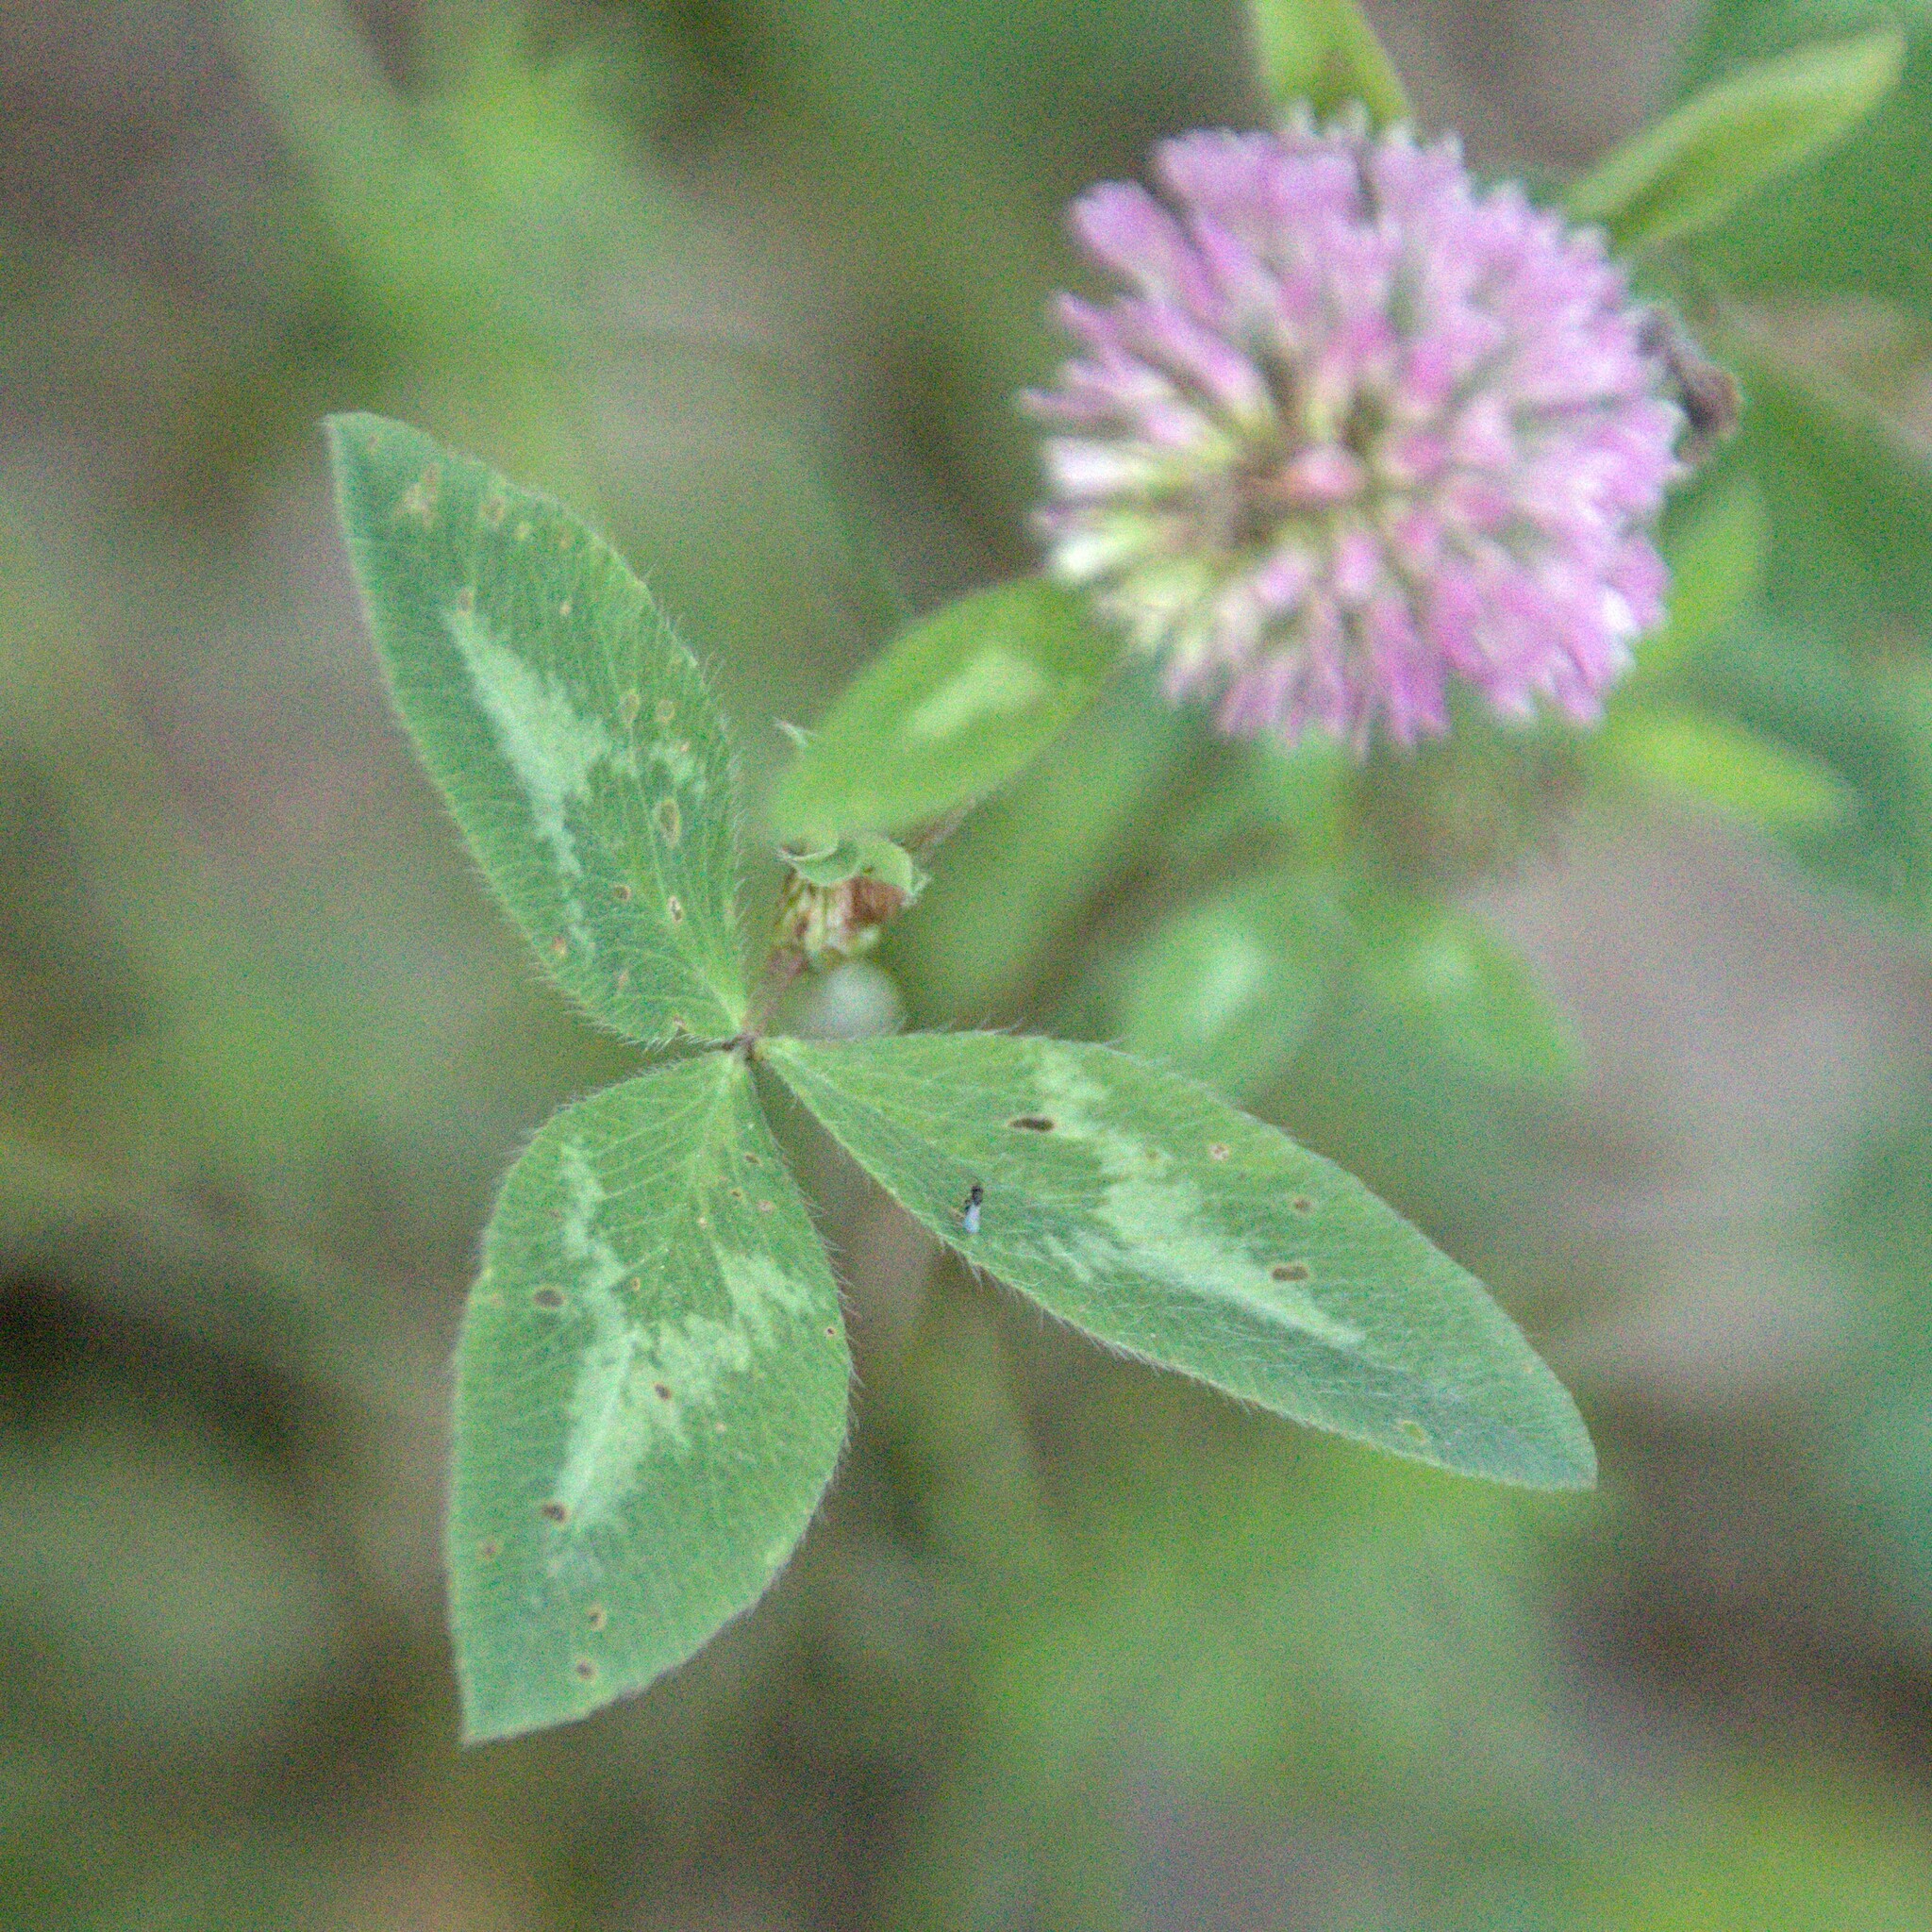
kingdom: Plantae
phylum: Tracheophyta
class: Magnoliopsida
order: Fabales
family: Fabaceae
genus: Trifolium
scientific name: Trifolium pratense
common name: Red clover
